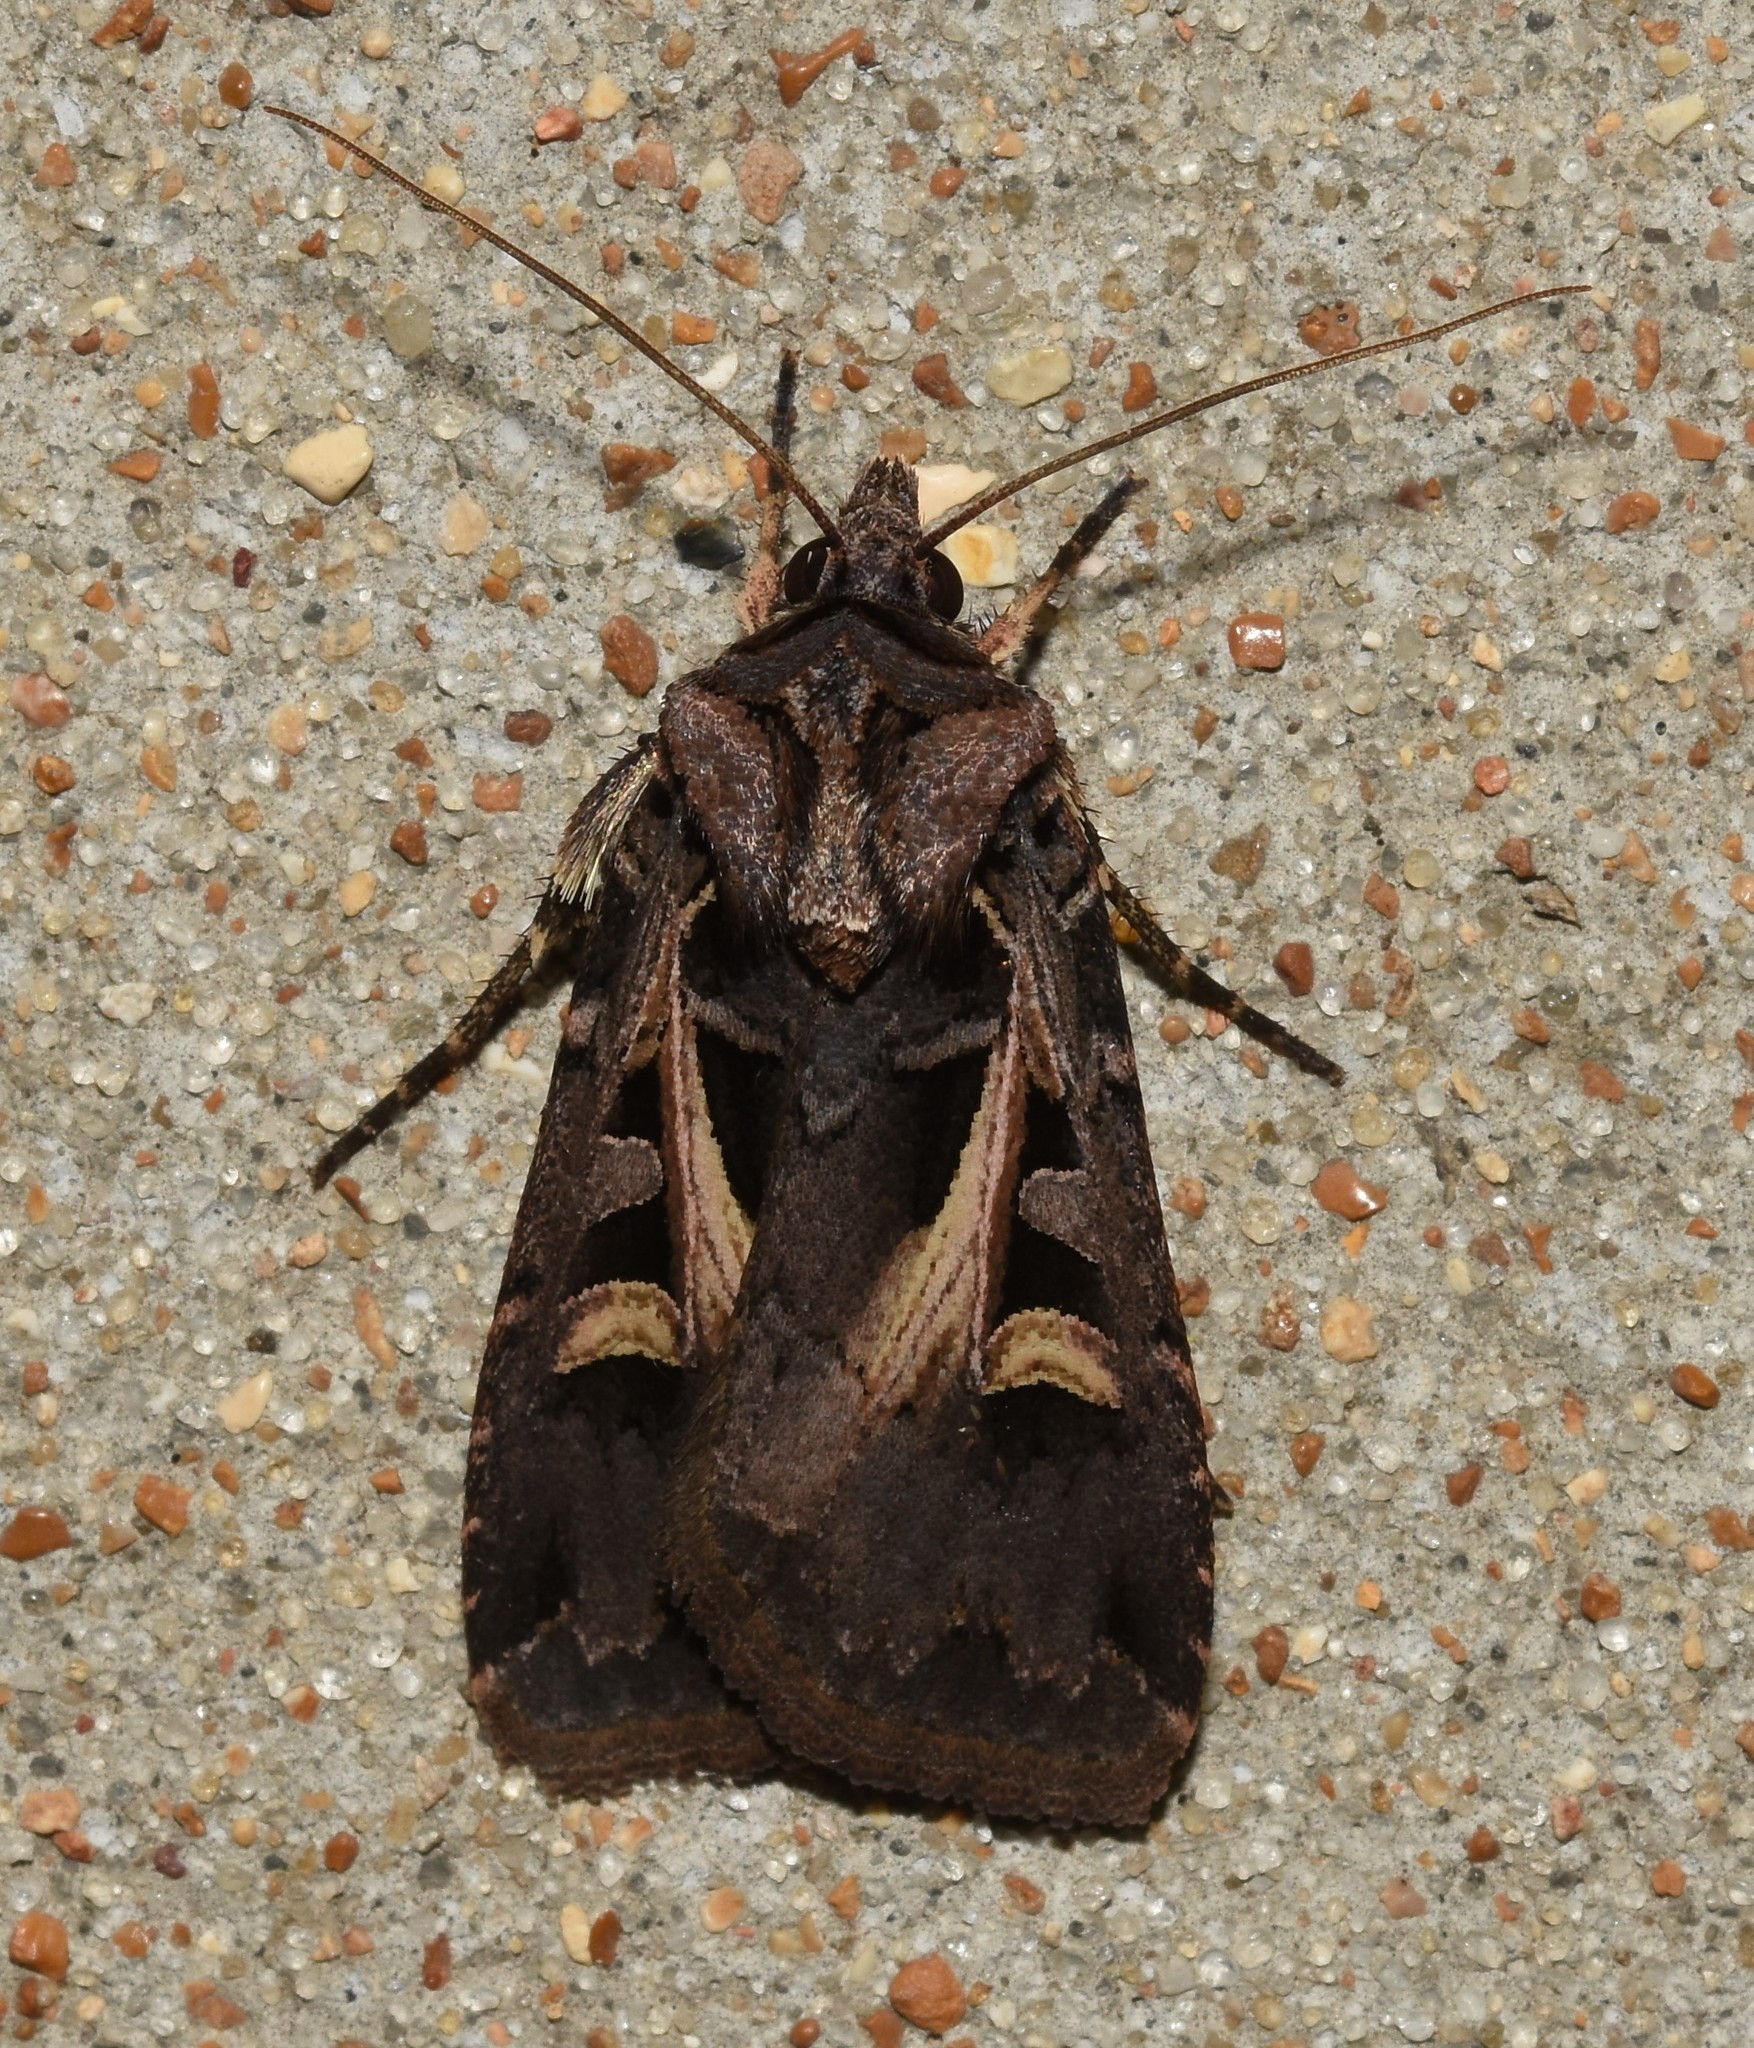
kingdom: Animalia
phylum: Arthropoda
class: Insecta
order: Lepidoptera
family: Noctuidae
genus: Feltia
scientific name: Feltia herilis
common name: Master's dart
